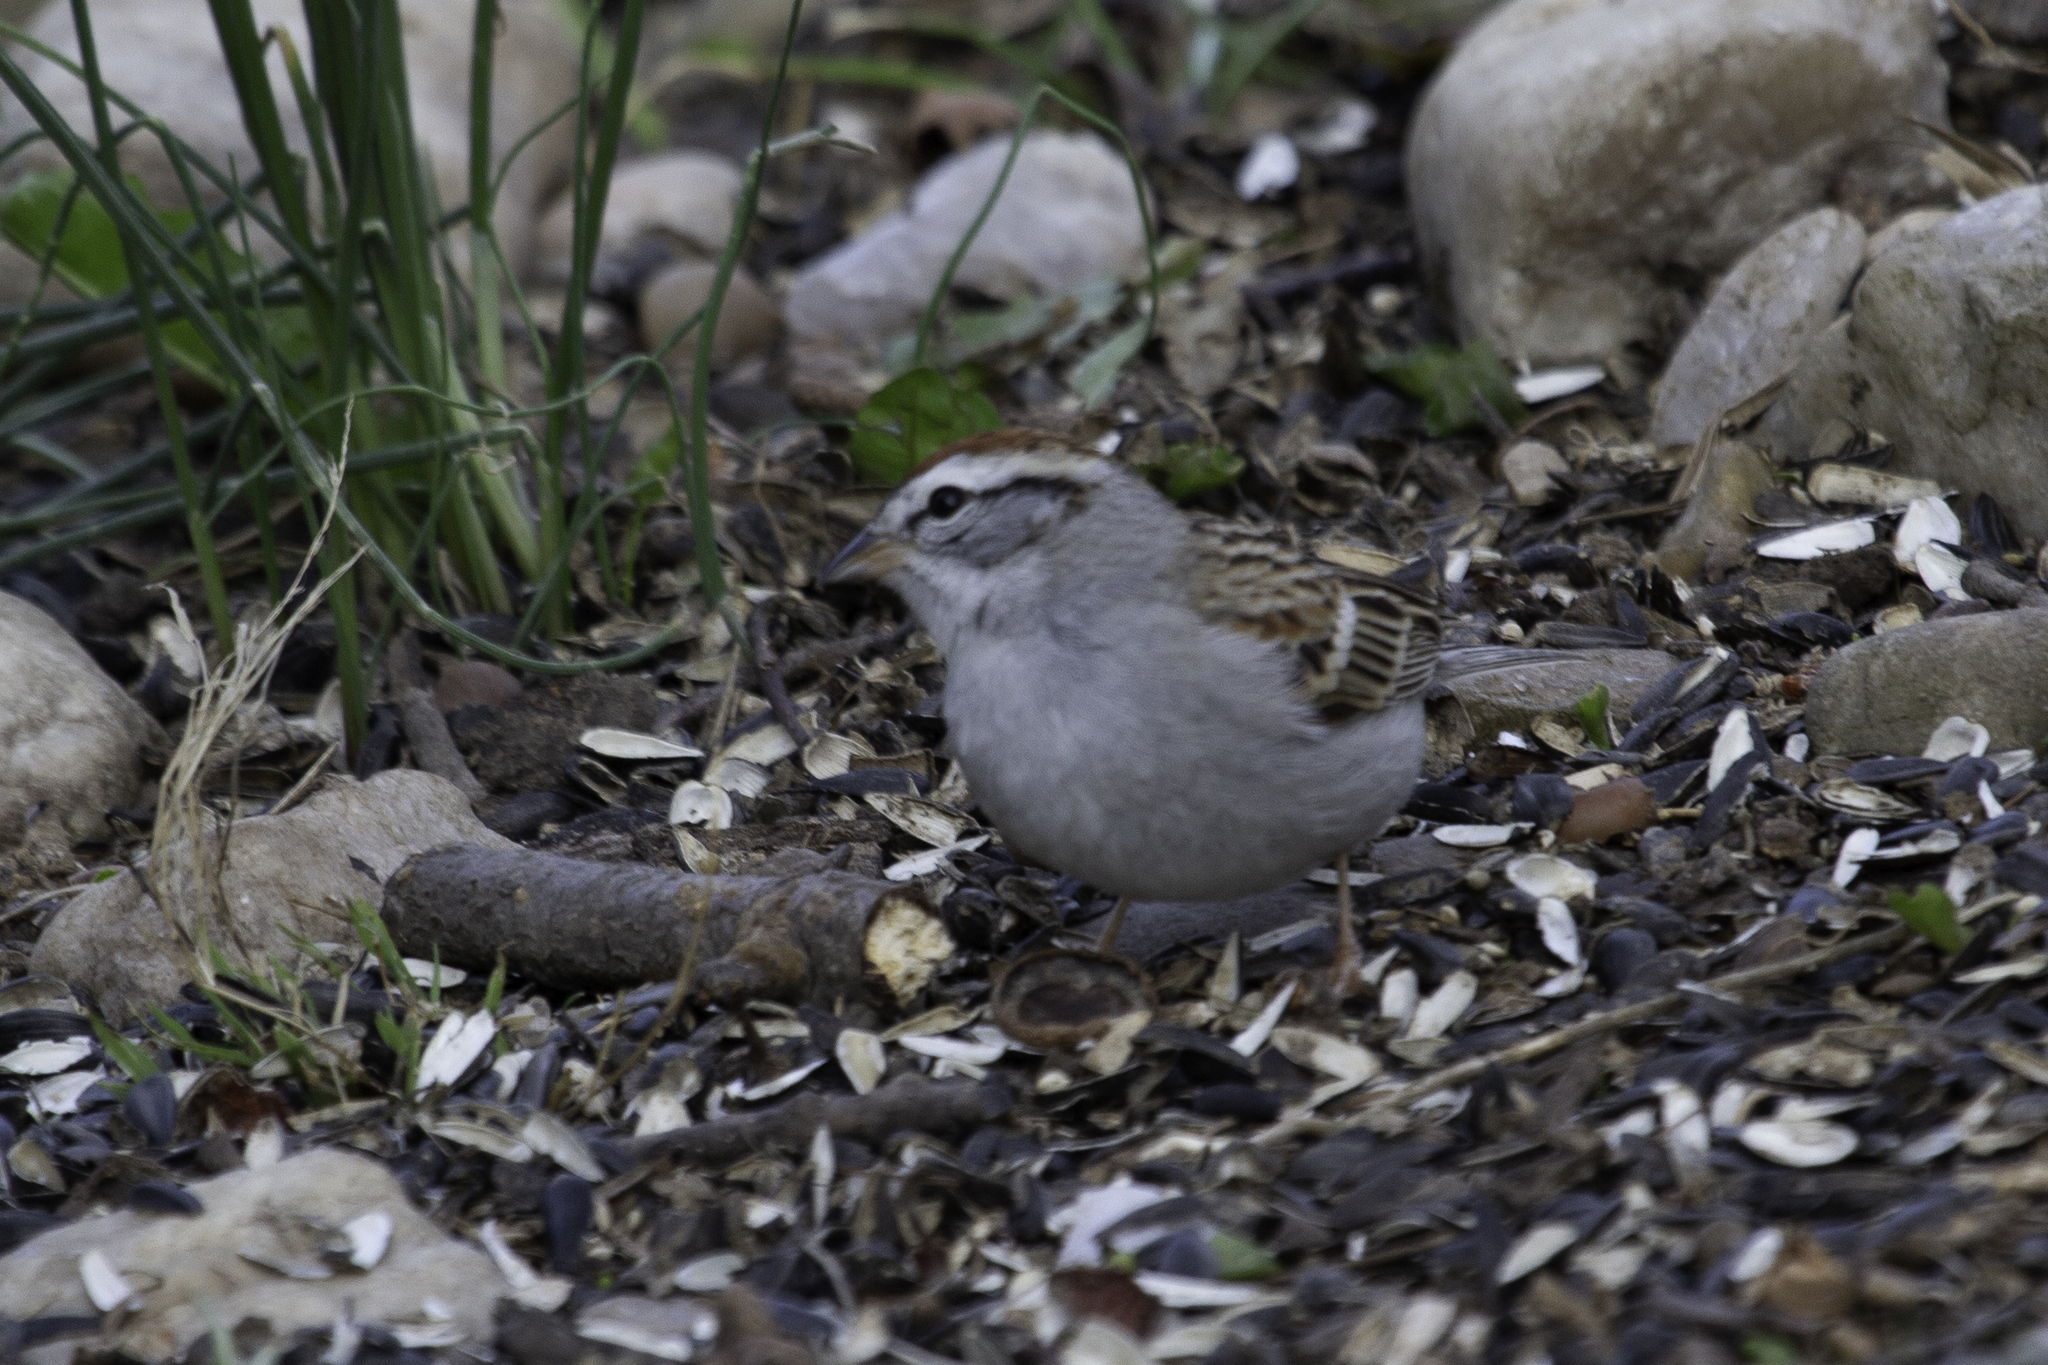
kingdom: Animalia
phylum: Chordata
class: Aves
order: Passeriformes
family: Passerellidae
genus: Spizella
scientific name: Spizella passerina
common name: Chipping sparrow
